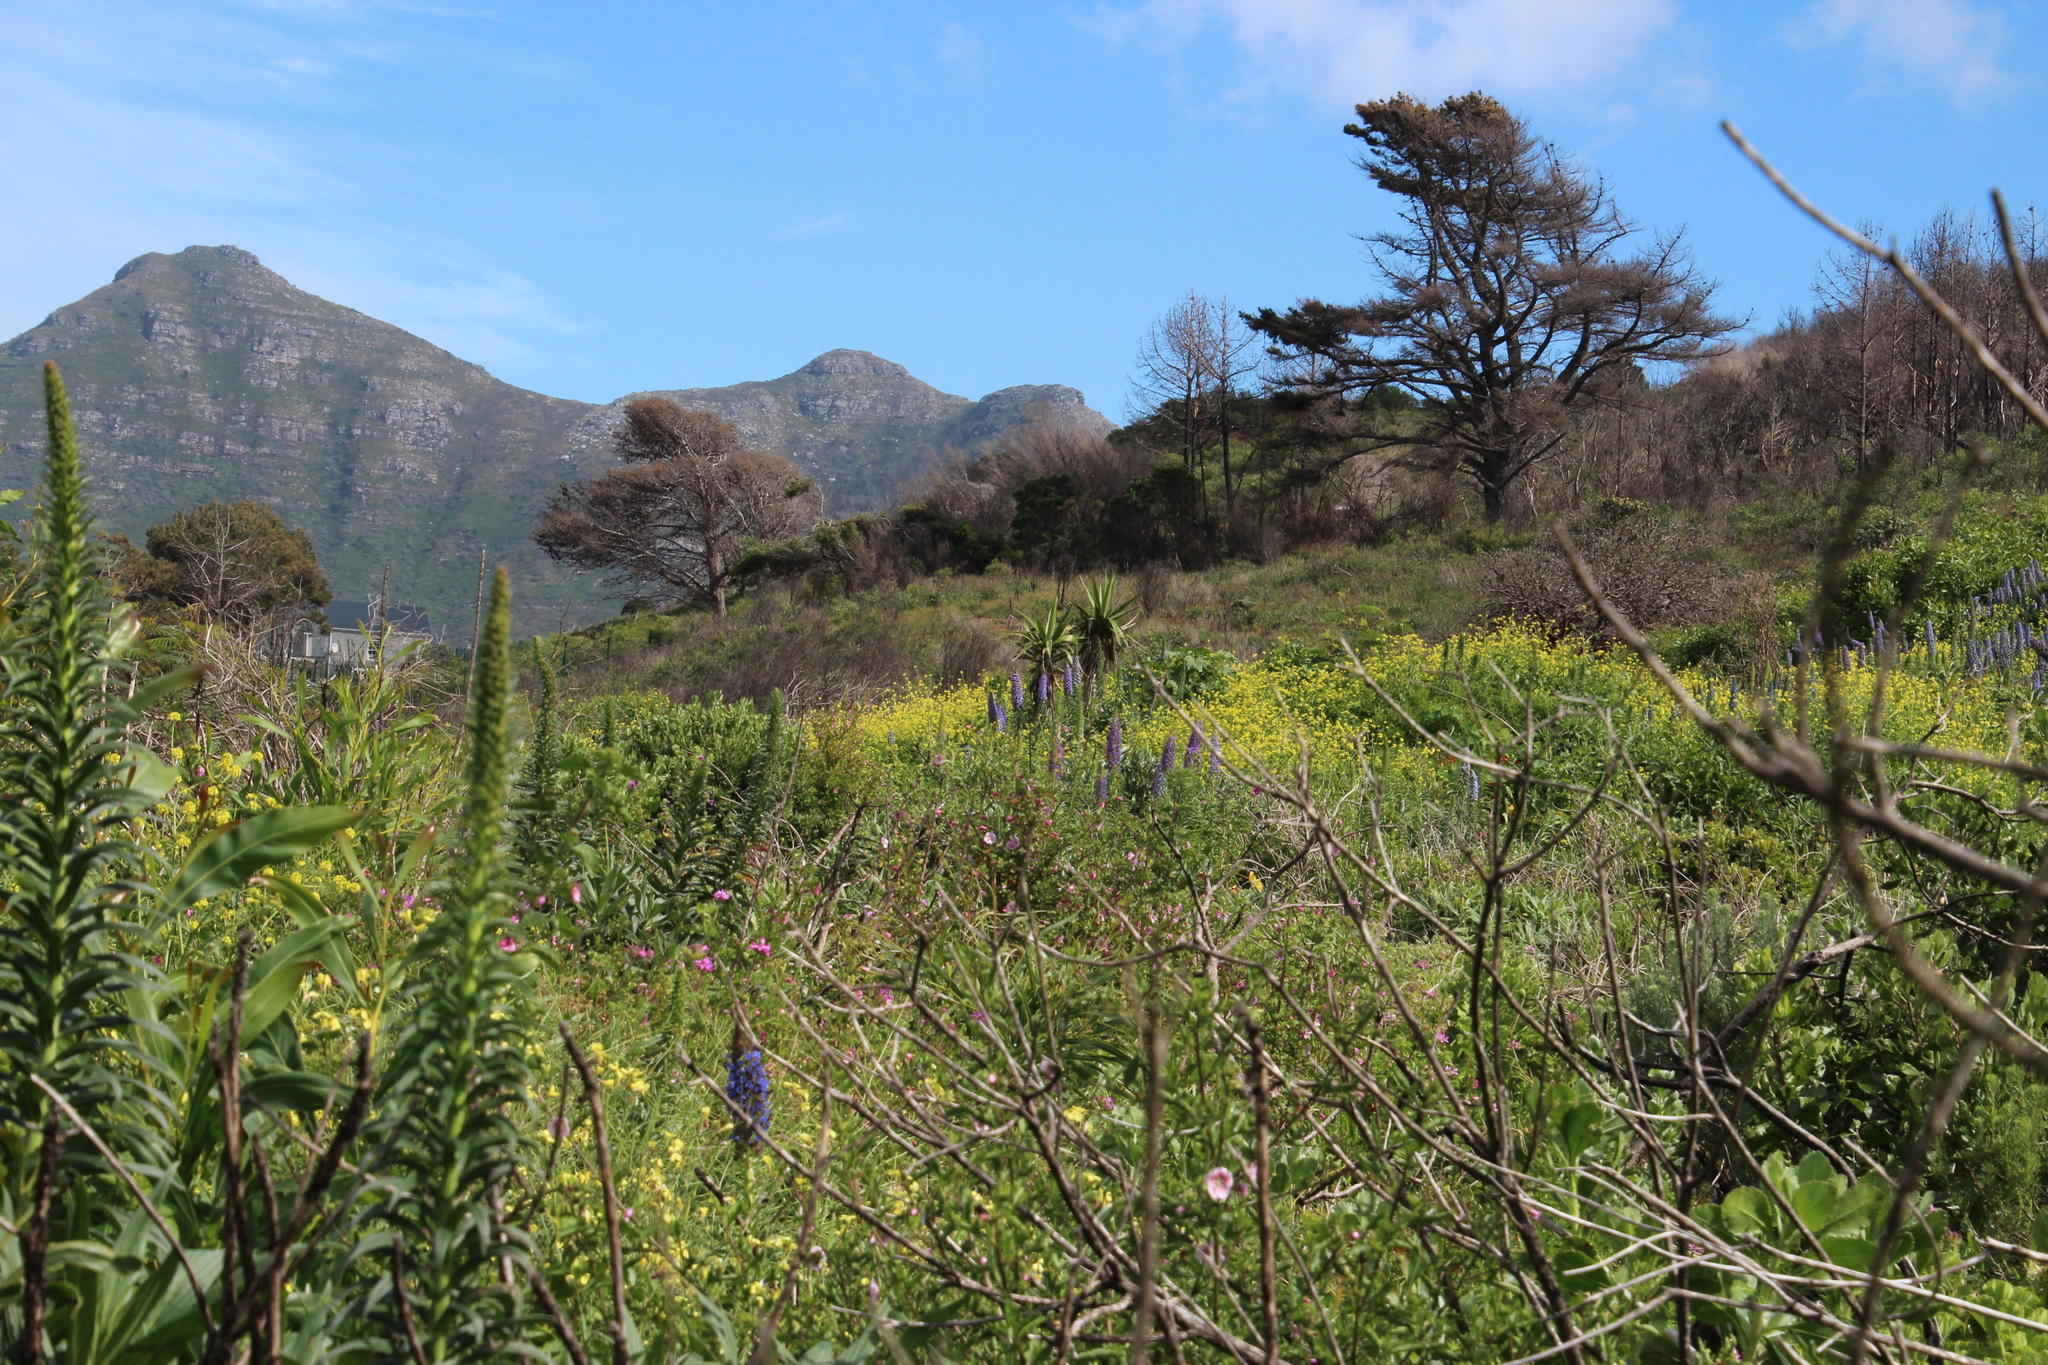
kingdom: Plantae
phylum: Tracheophyta
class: Liliopsida
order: Asparagales
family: Asparagaceae
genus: Yucca
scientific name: Yucca gigantea
